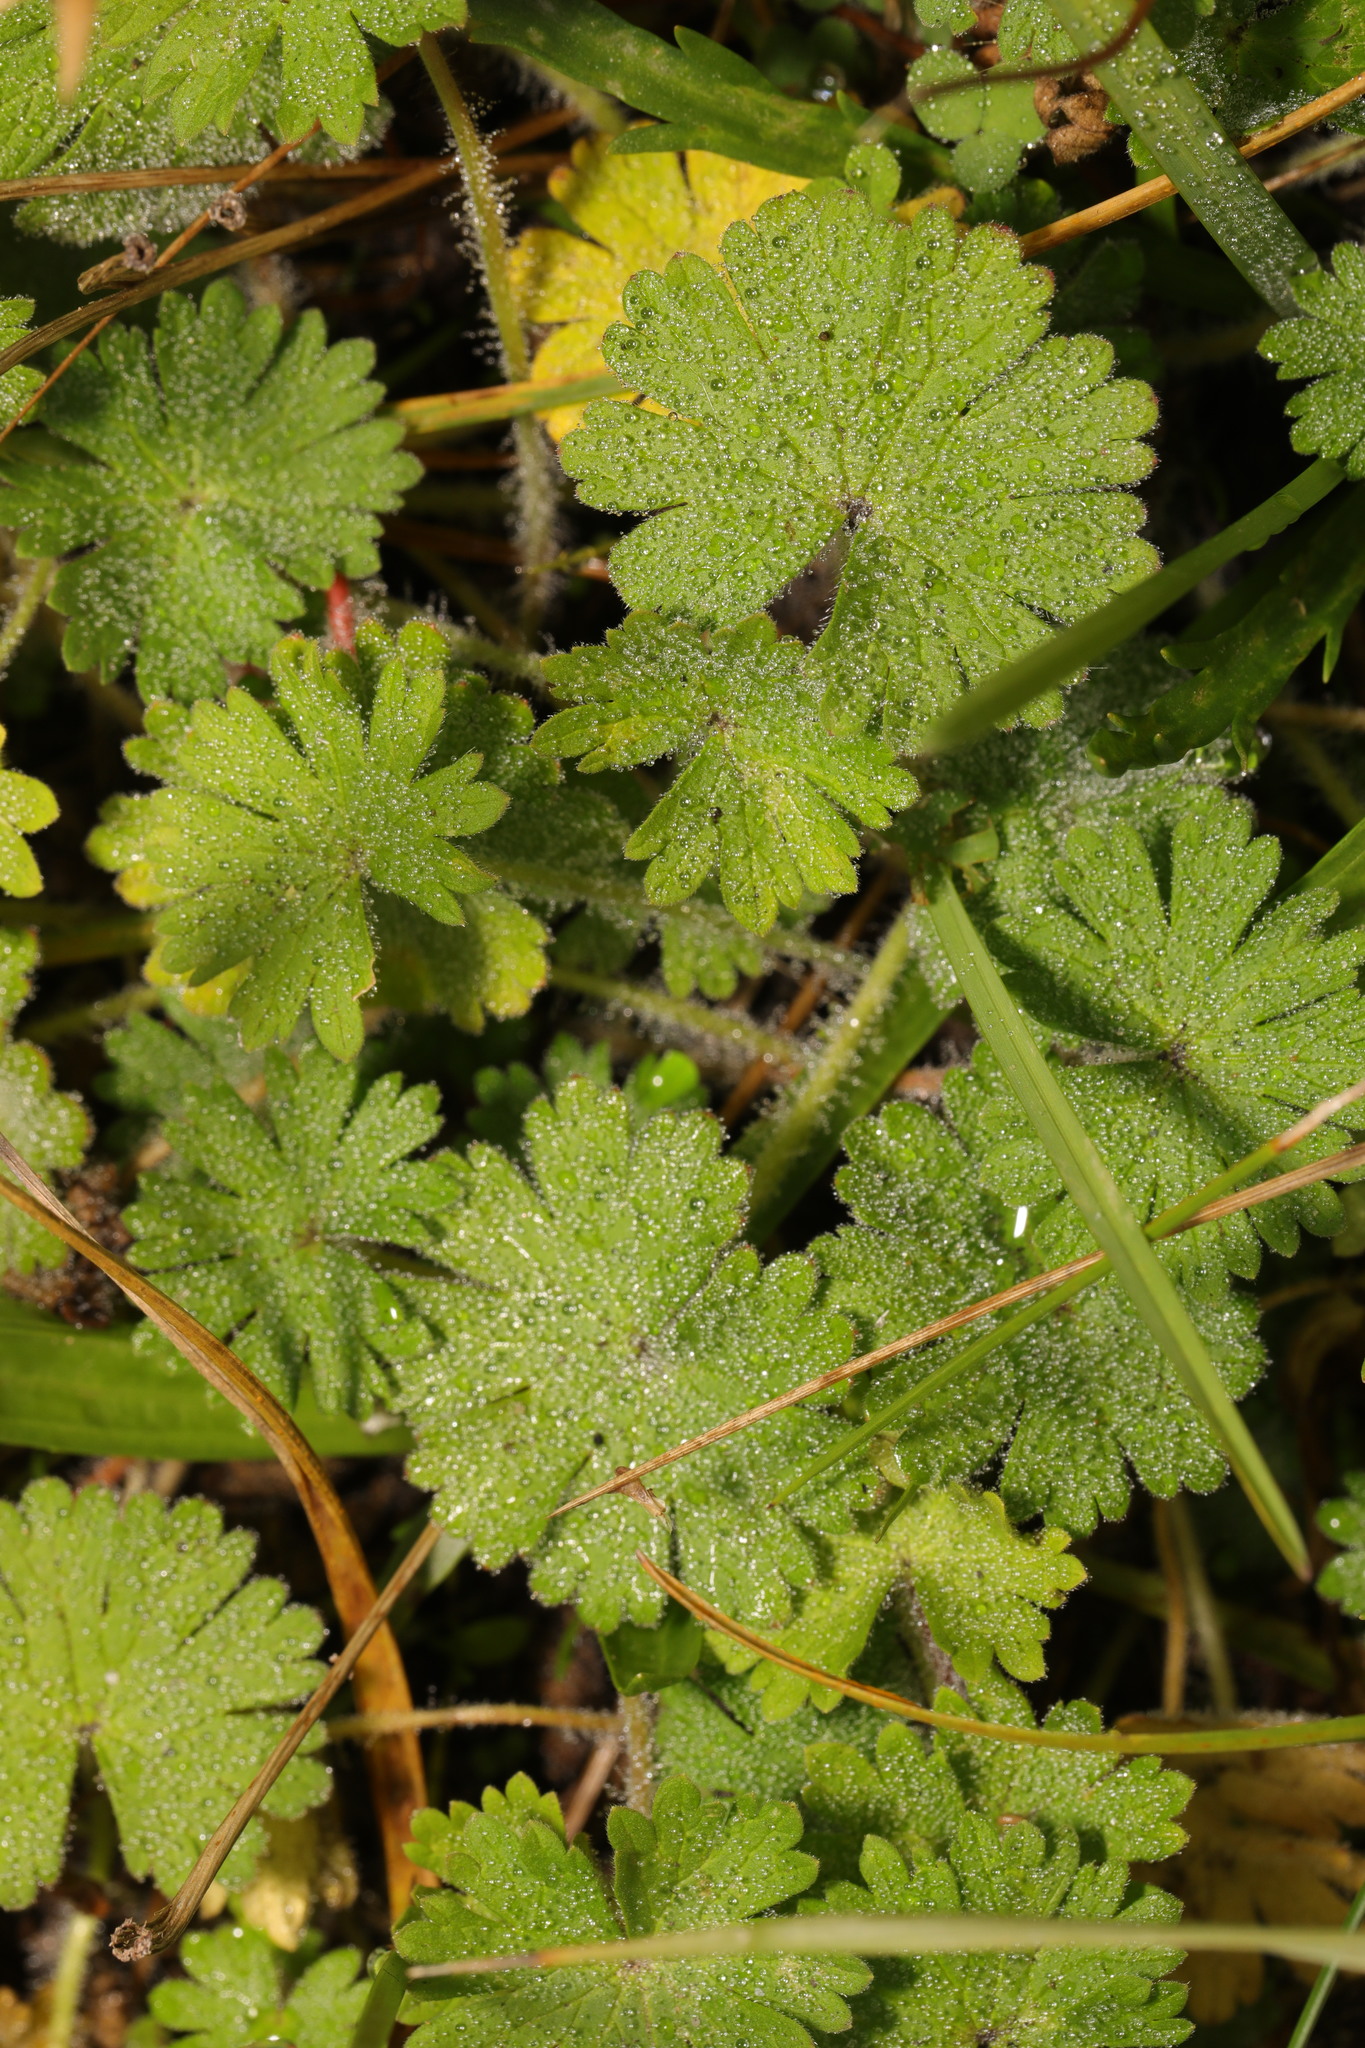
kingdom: Plantae
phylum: Tracheophyta
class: Magnoliopsida
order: Geraniales
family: Geraniaceae
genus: Geranium
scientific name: Geranium molle
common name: Dove's-foot crane's-bill
